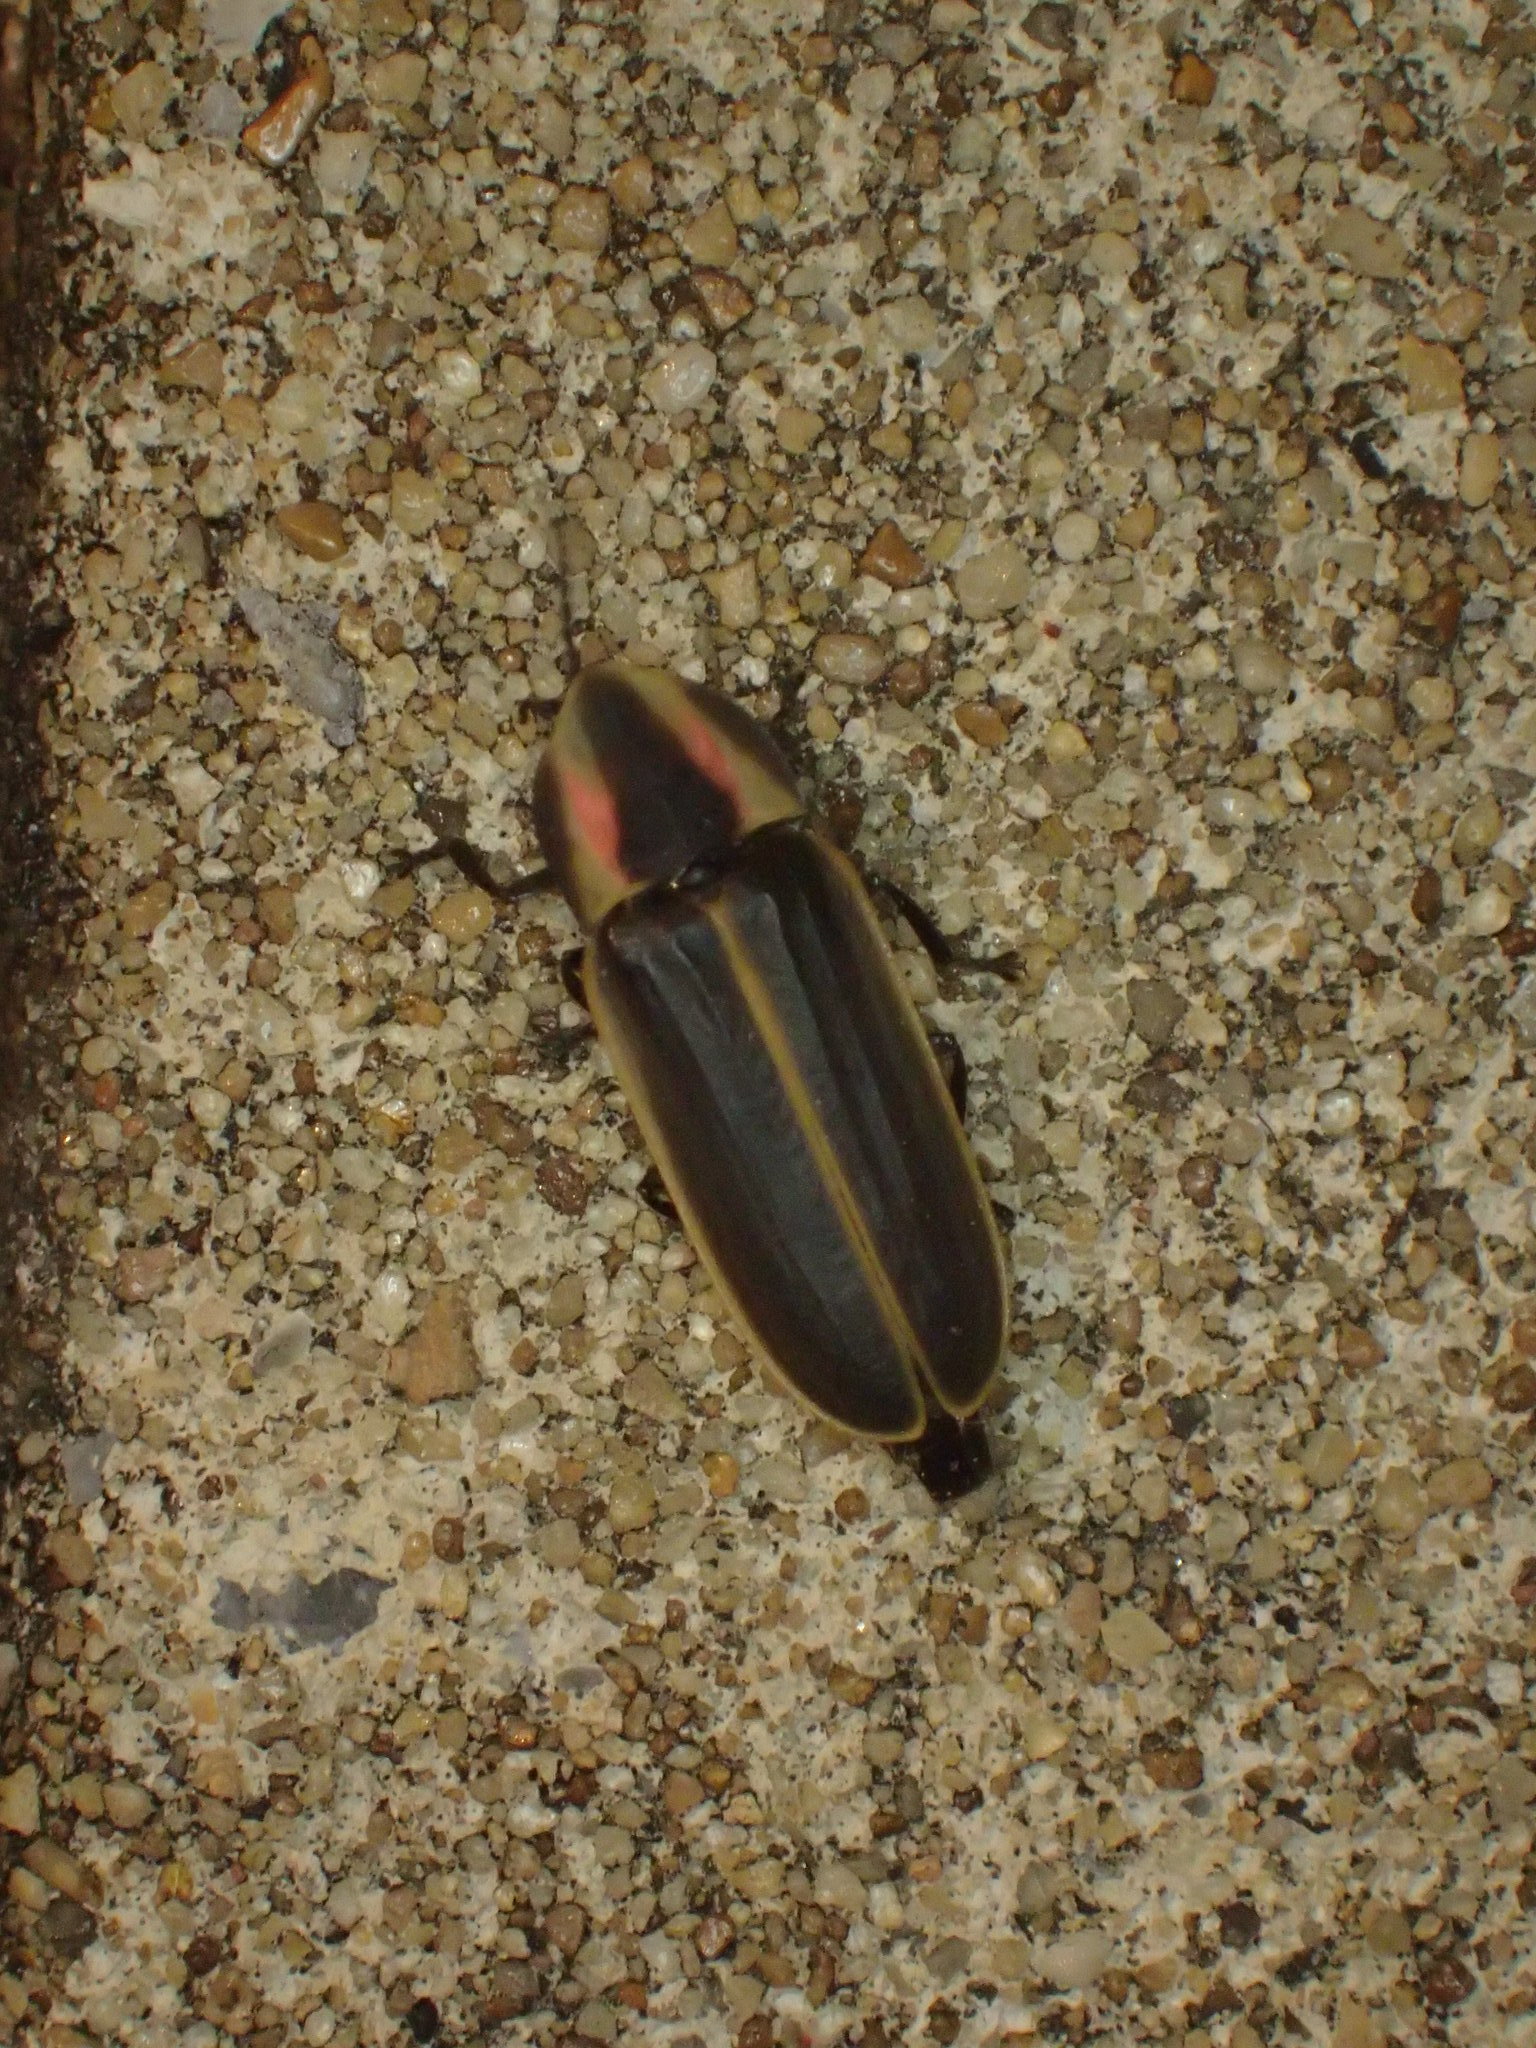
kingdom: Animalia
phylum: Arthropoda
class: Insecta
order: Coleoptera
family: Lampyridae
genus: Pyractomena
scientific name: Pyractomena borealis
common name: Northern firefly
